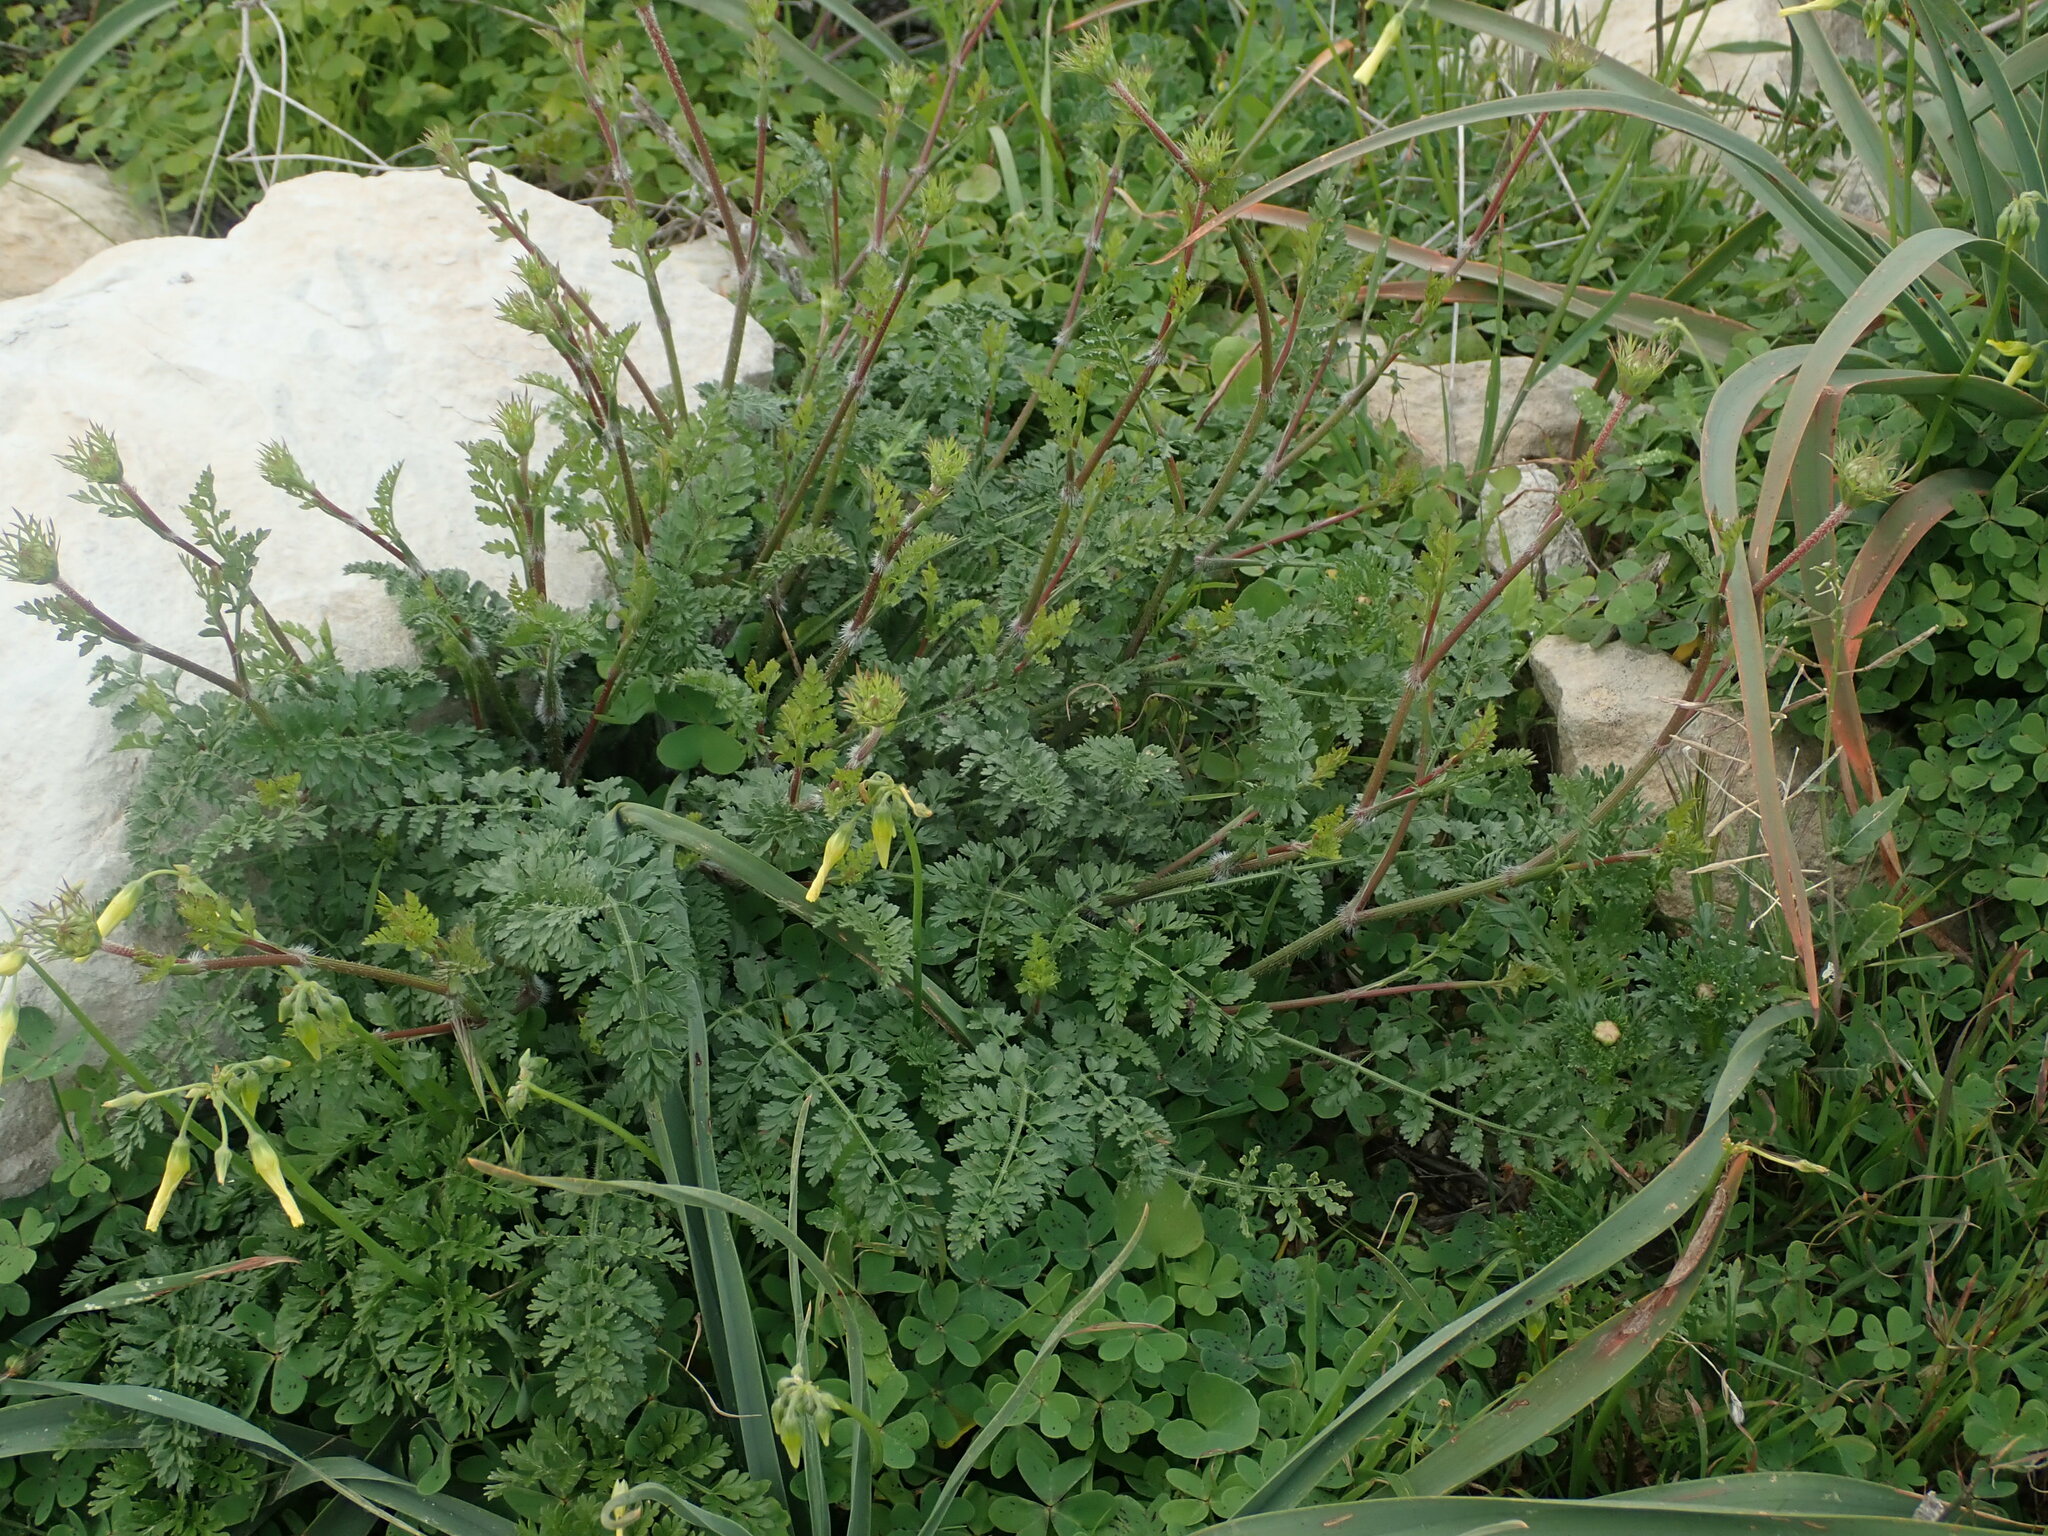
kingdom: Plantae
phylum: Tracheophyta
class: Magnoliopsida
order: Apiales
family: Apiaceae
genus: Daucus
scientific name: Daucus carota
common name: Wild carrot
